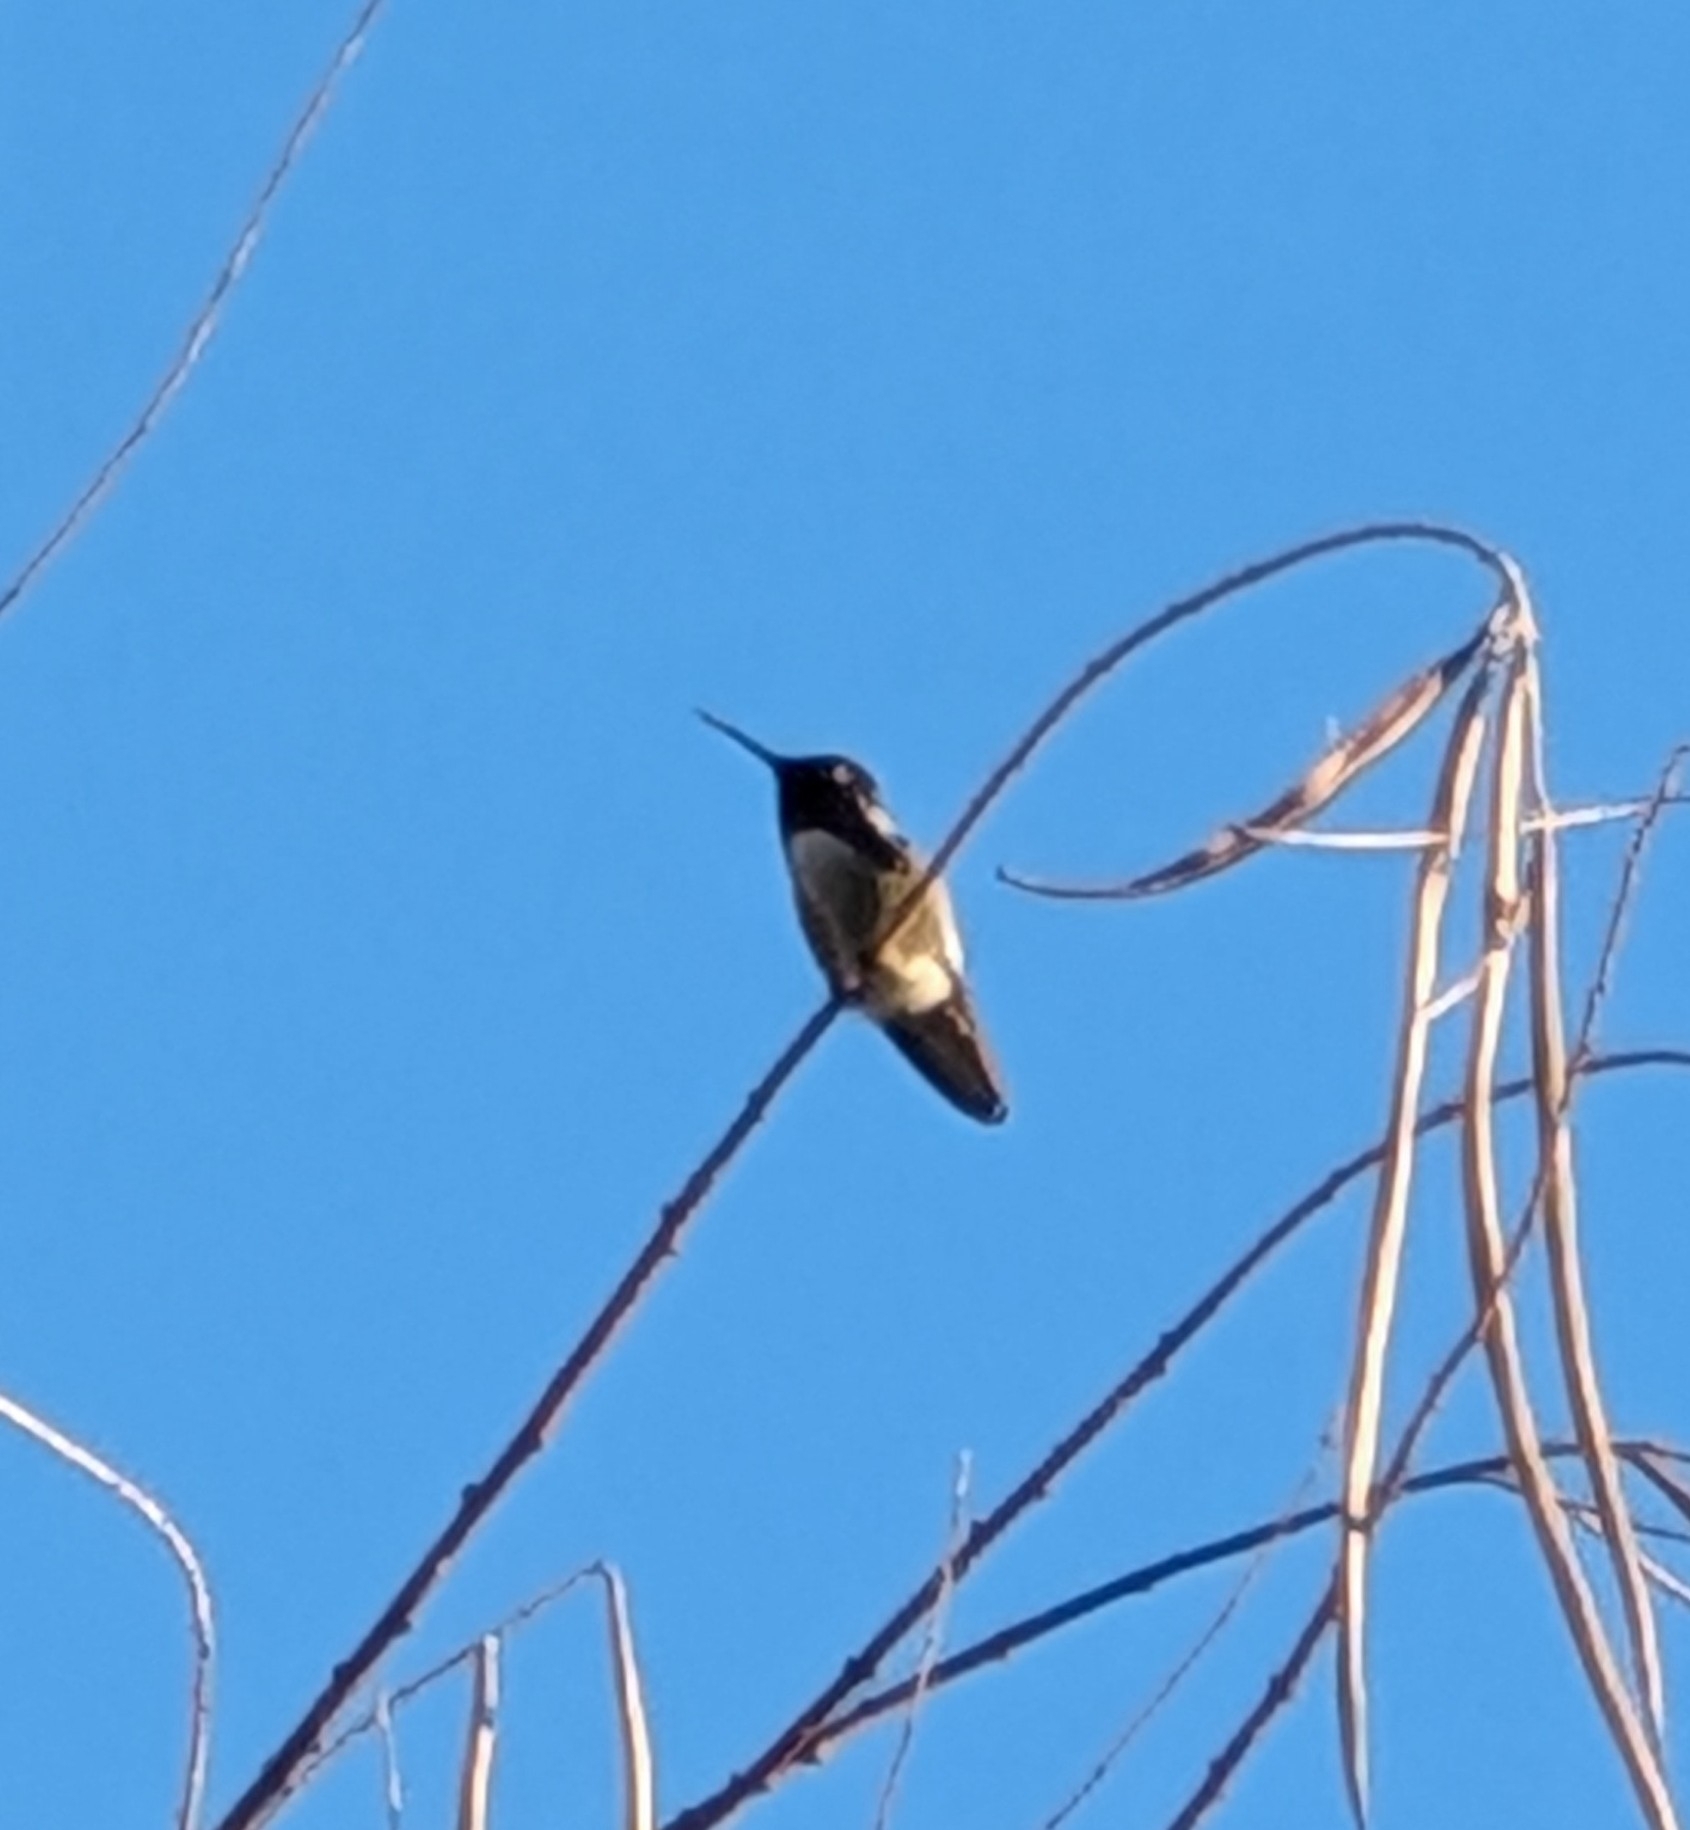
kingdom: Animalia
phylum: Chordata
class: Aves
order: Apodiformes
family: Trochilidae
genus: Calypte
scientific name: Calypte costae
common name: Costa's hummingbird
